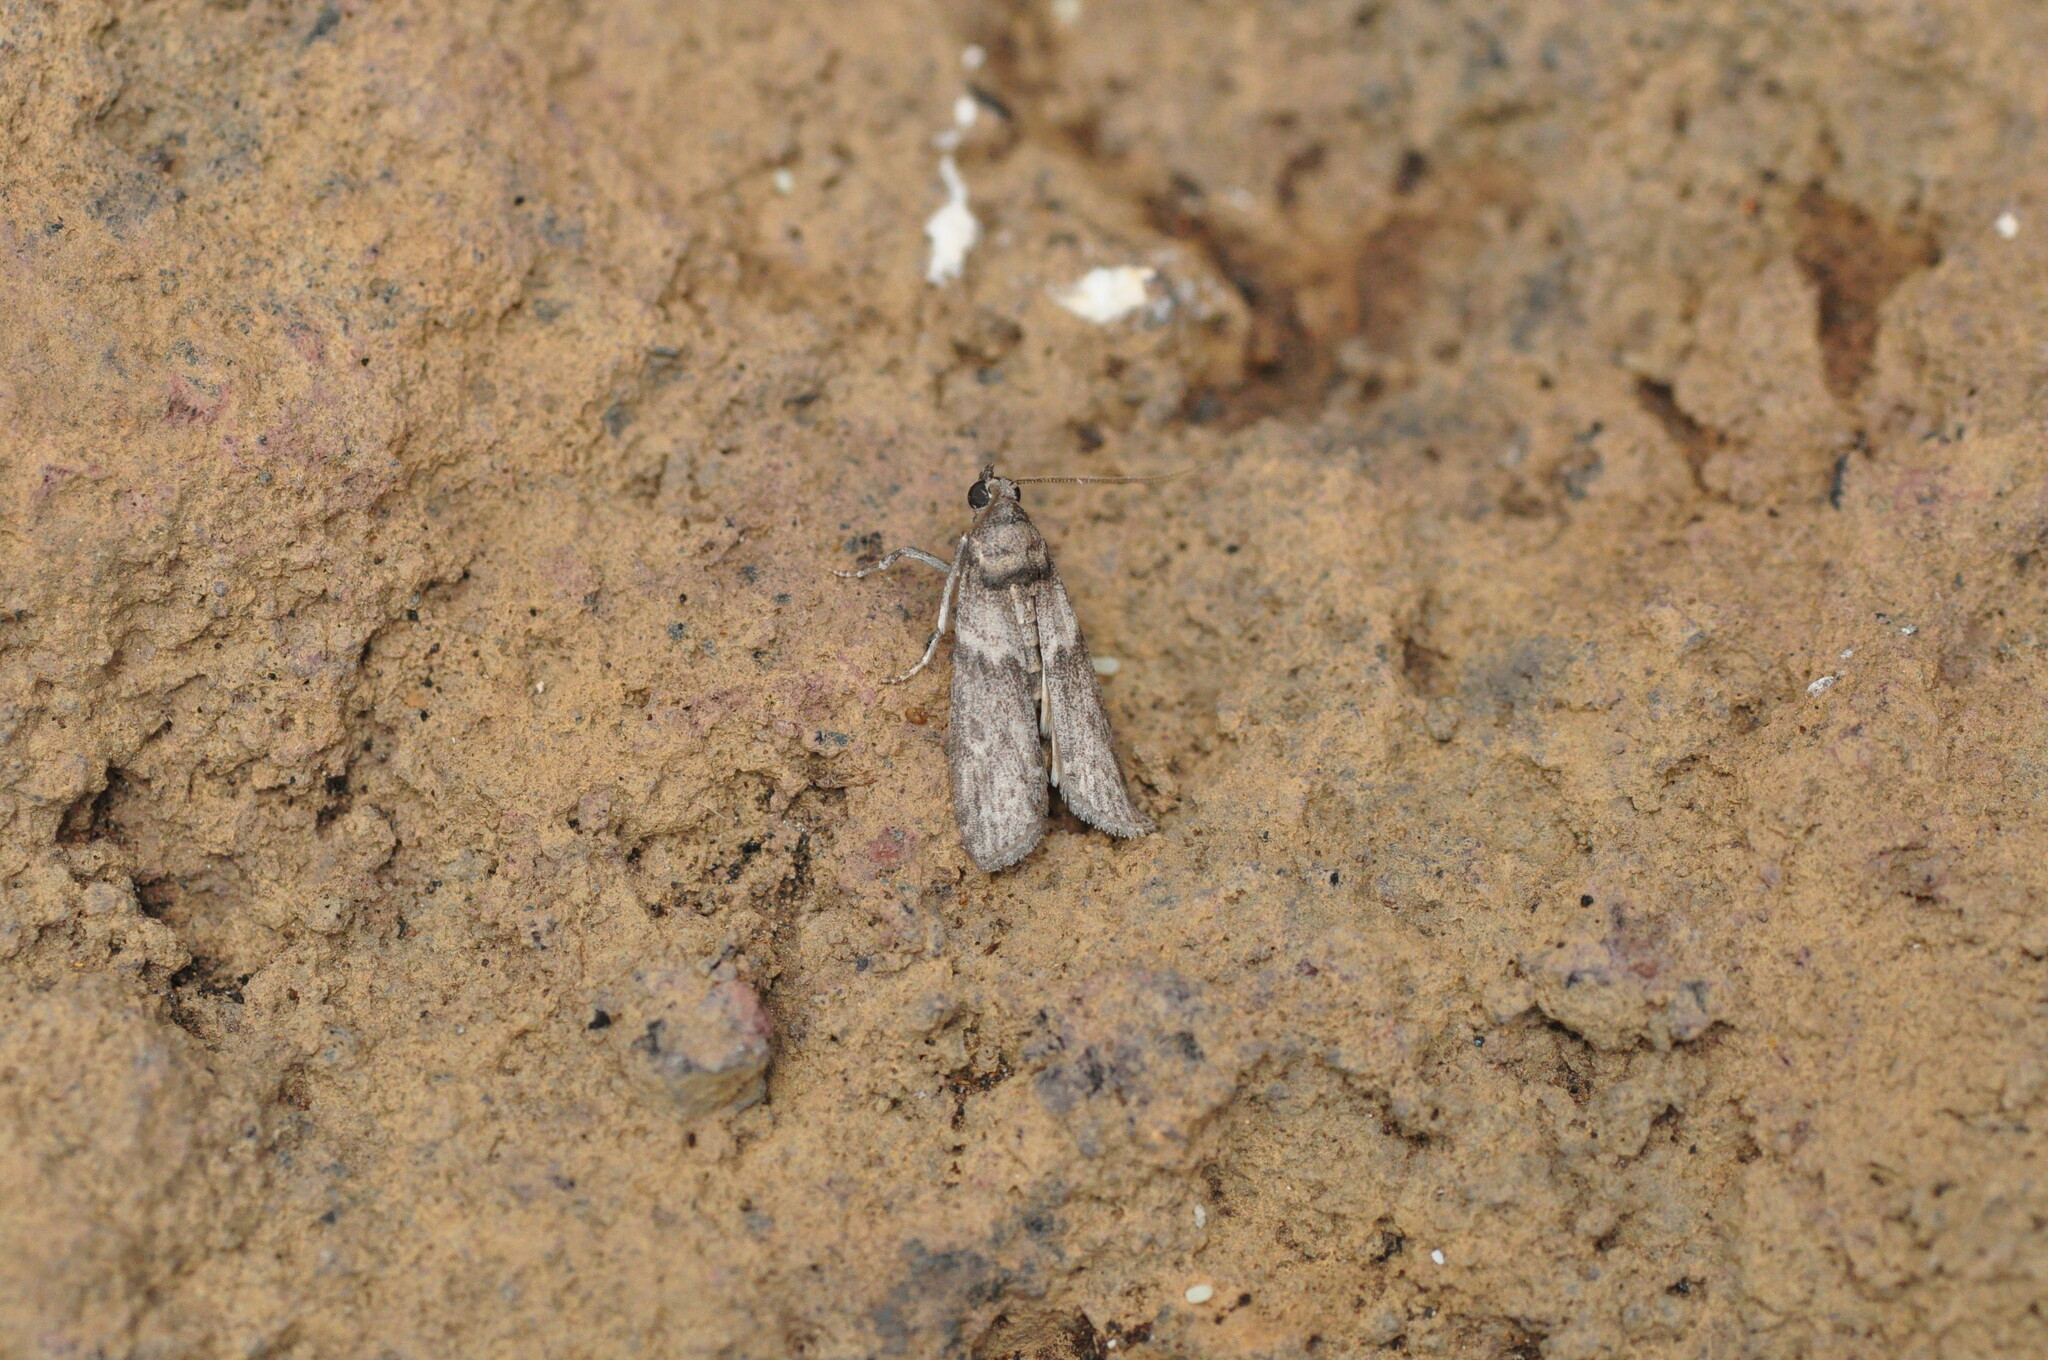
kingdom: Animalia
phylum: Arthropoda
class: Insecta
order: Lepidoptera
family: Pyralidae
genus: Ectomyelois
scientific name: Ectomyelois ceratoniae
